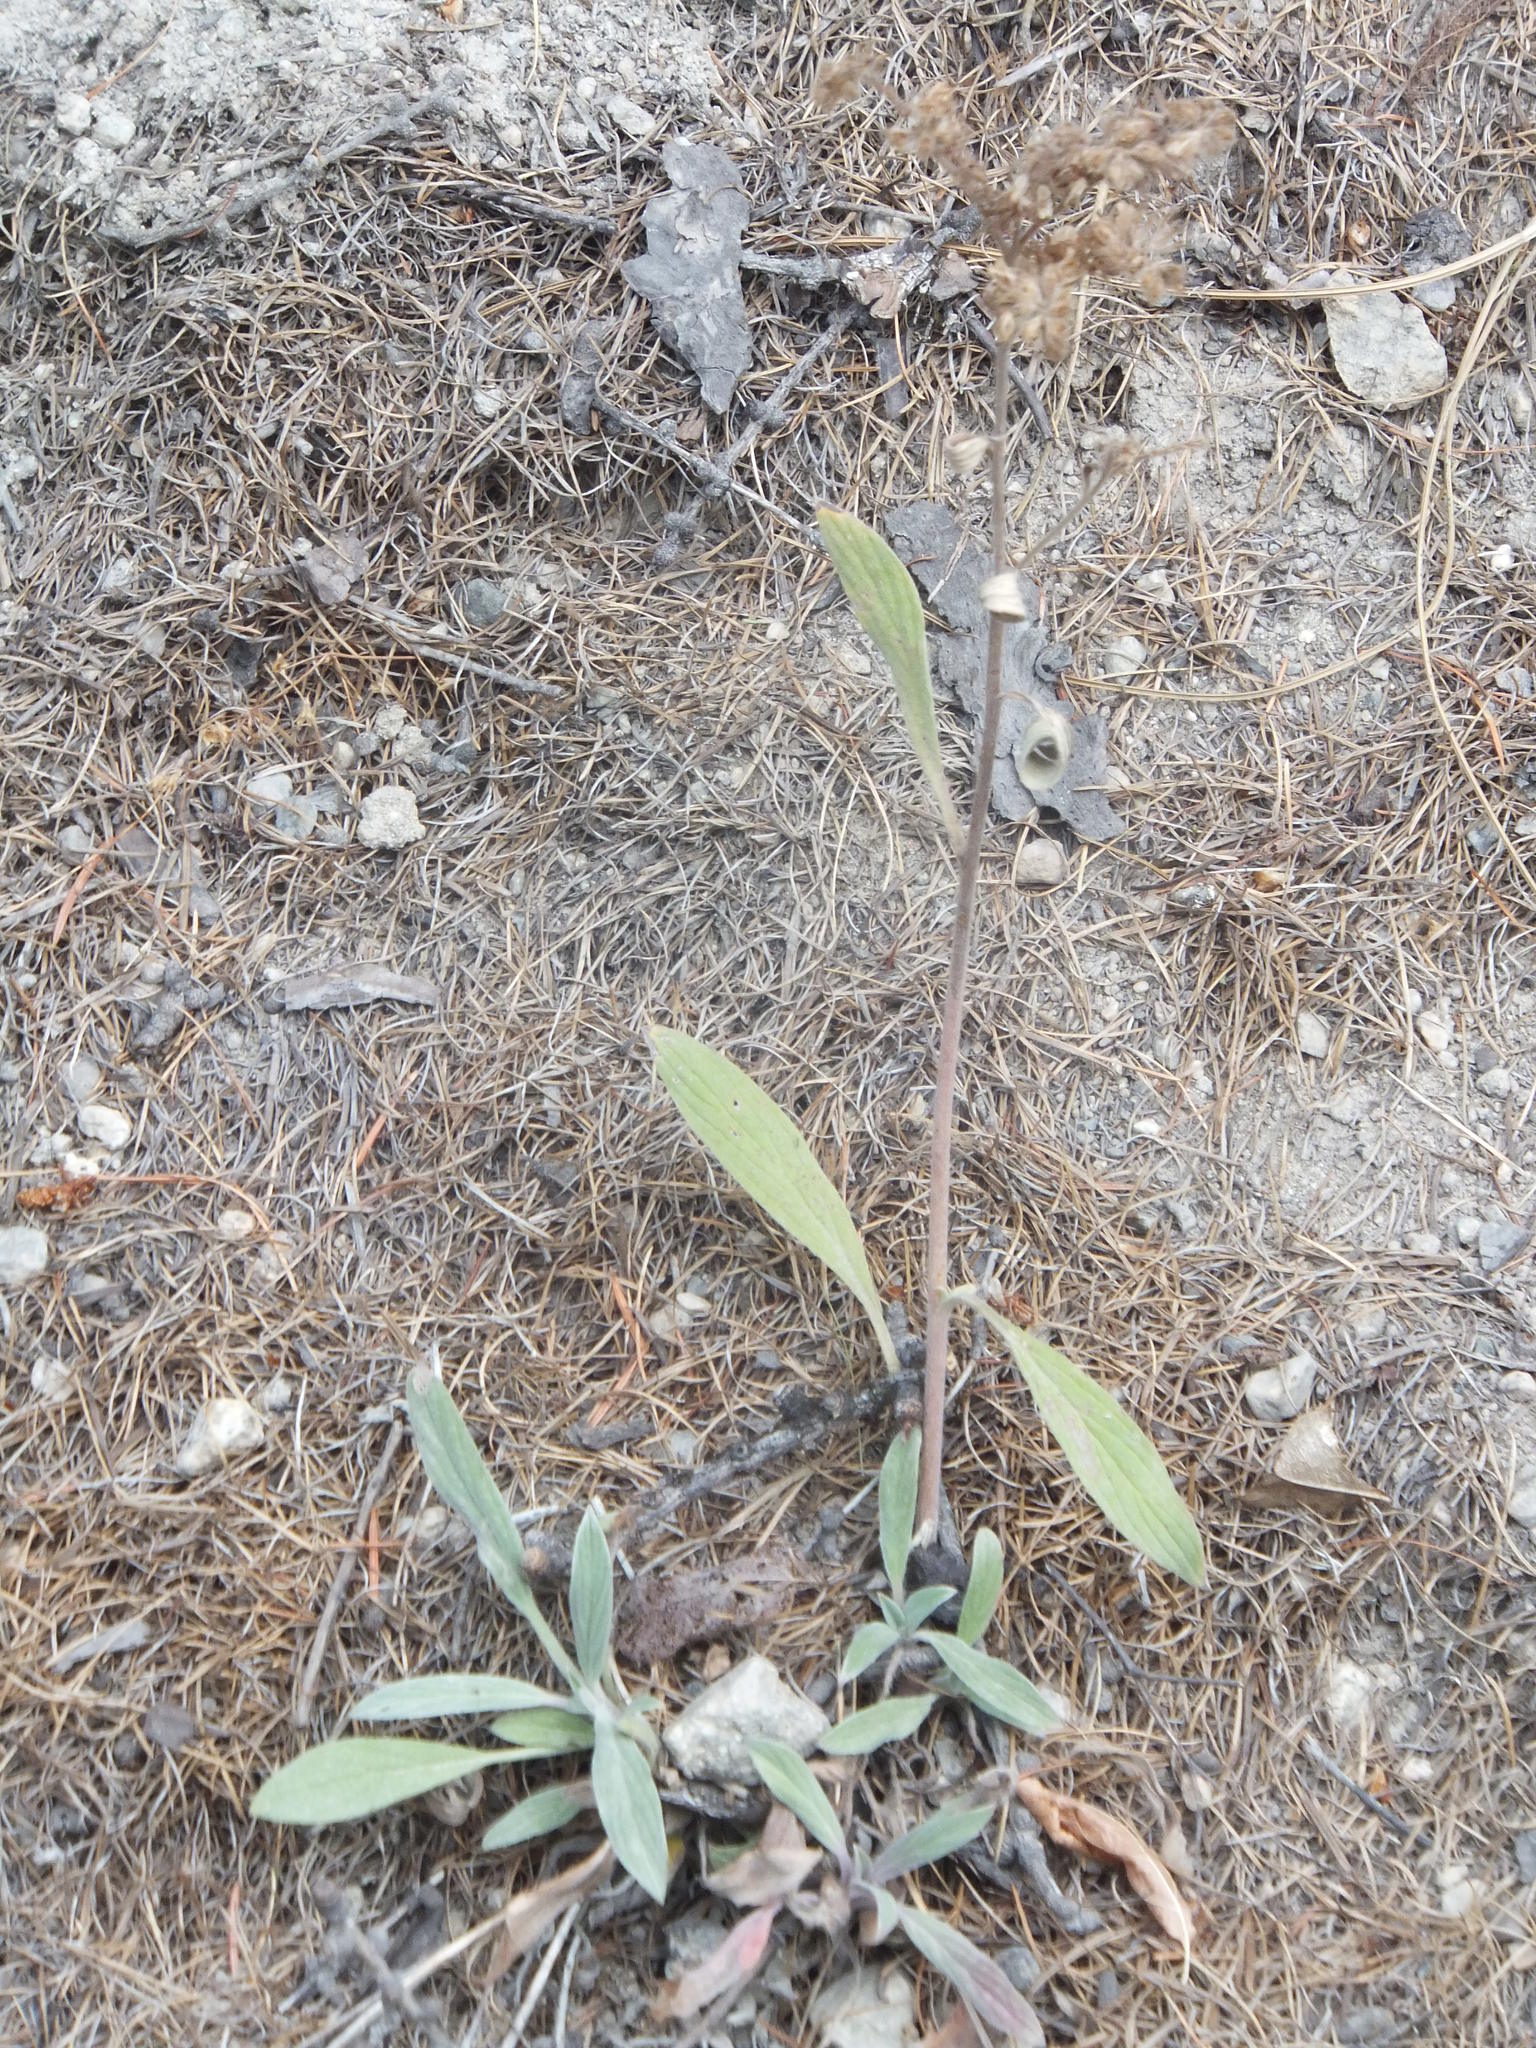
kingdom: Plantae
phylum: Tracheophyta
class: Magnoliopsida
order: Boraginales
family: Hydrophyllaceae
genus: Phacelia
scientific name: Phacelia hastata
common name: Silver-leaved phacelia
